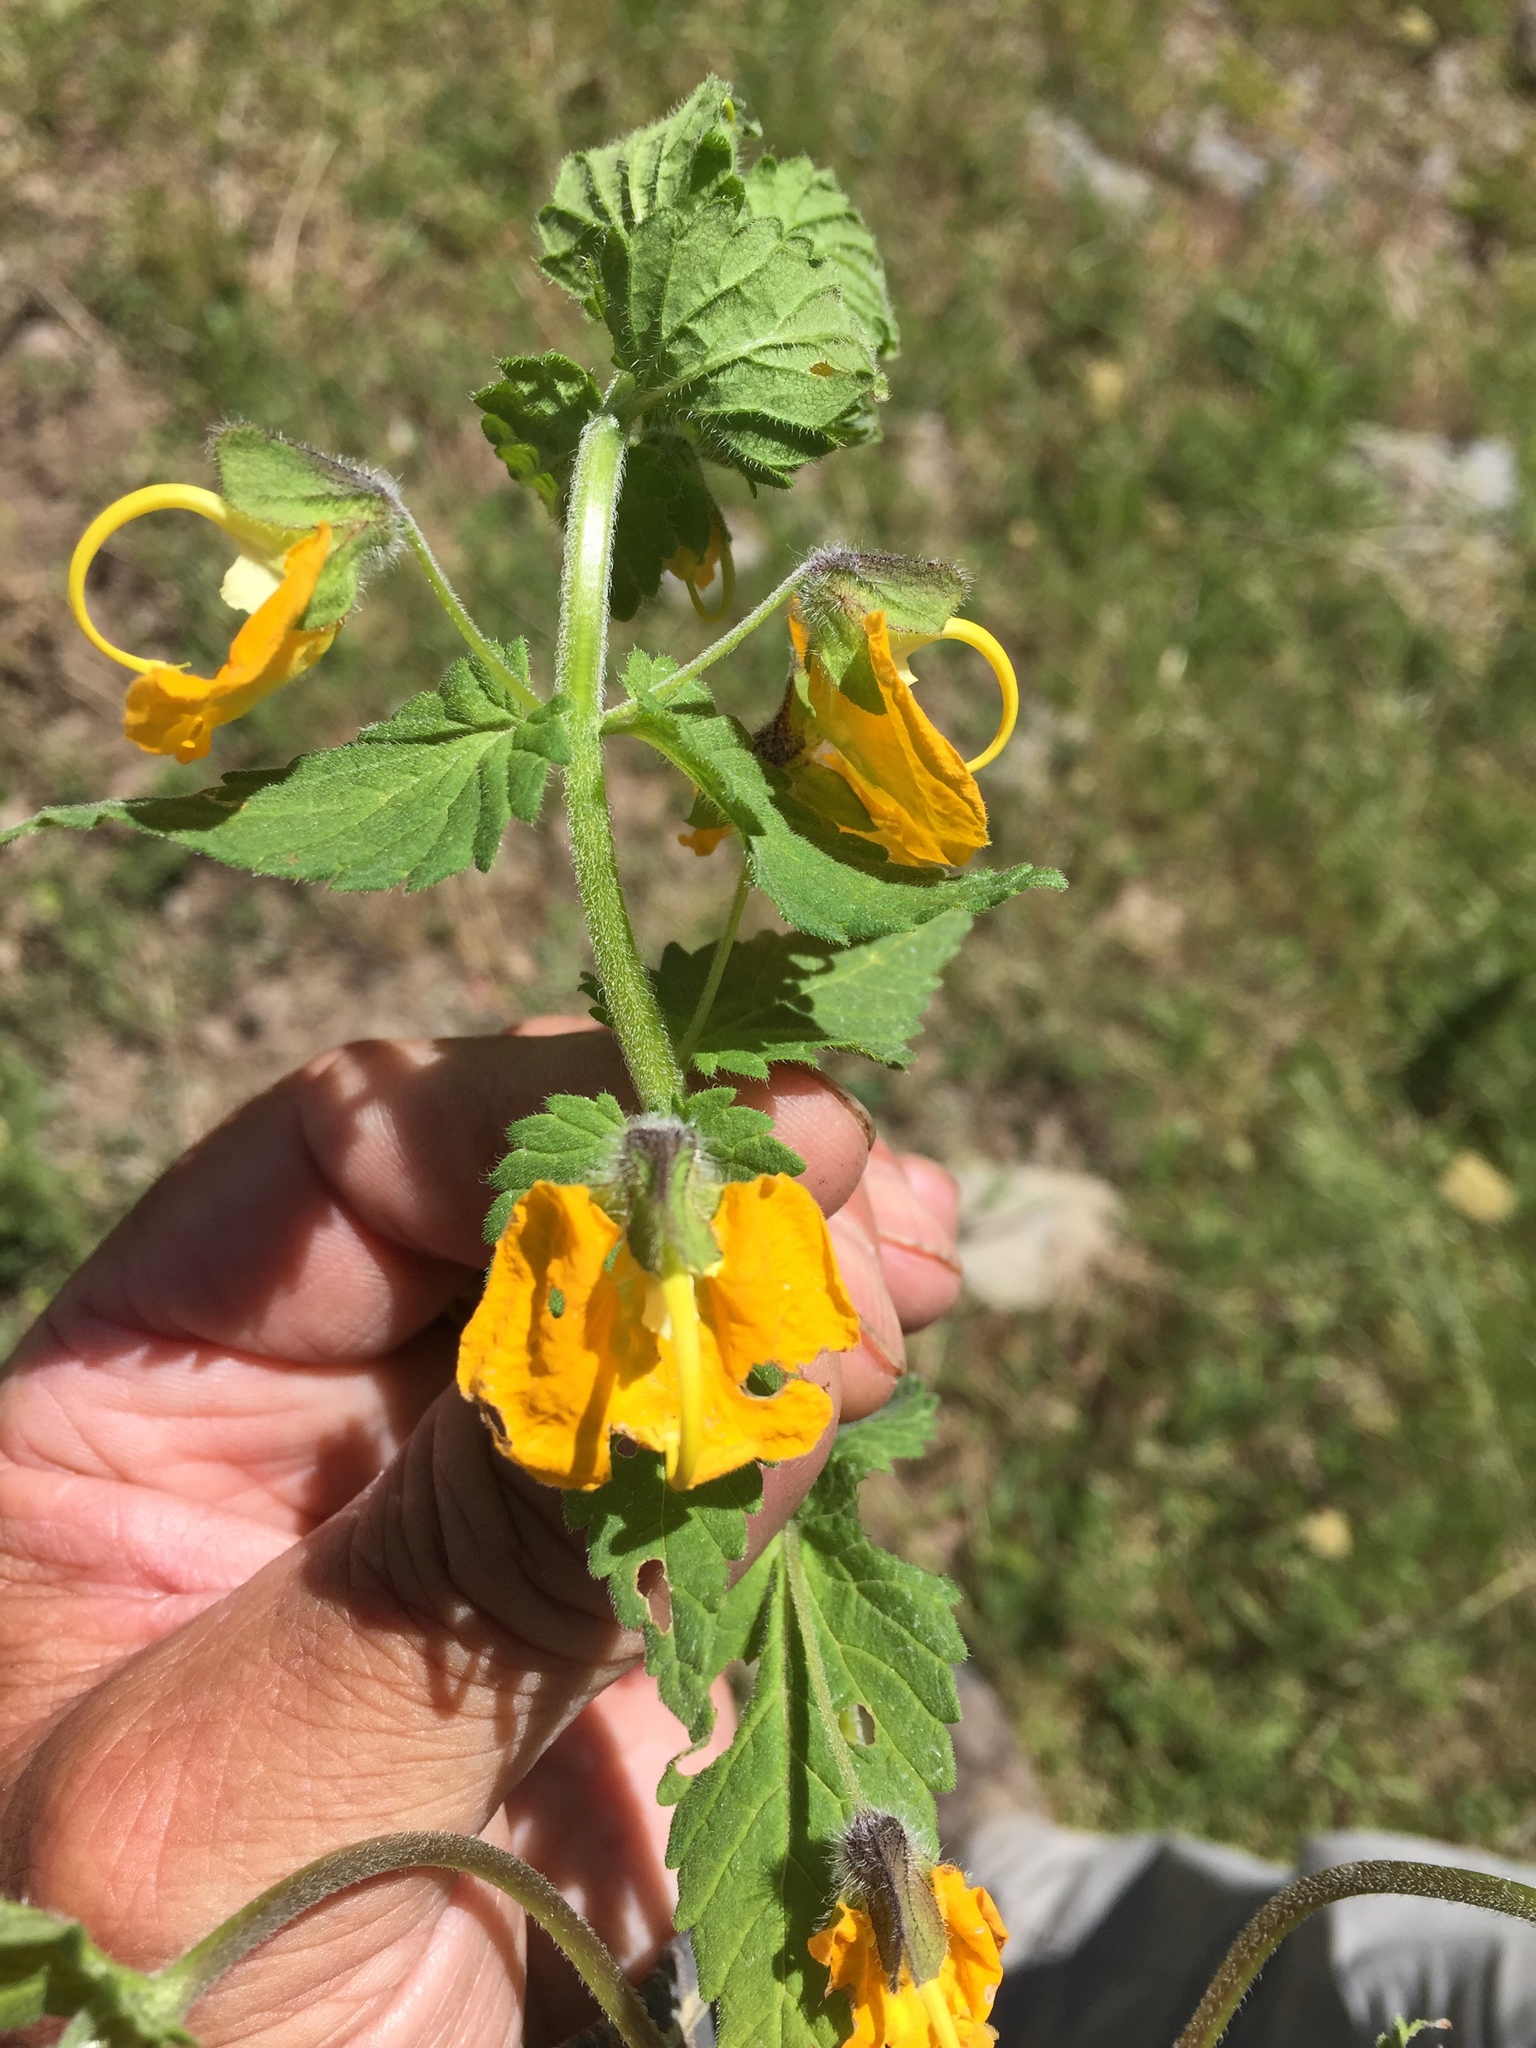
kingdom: Plantae
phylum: Tracheophyta
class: Magnoliopsida
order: Lamiales
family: Orobanchaceae
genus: Rhynchocorys
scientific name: Rhynchocorys orientalis
